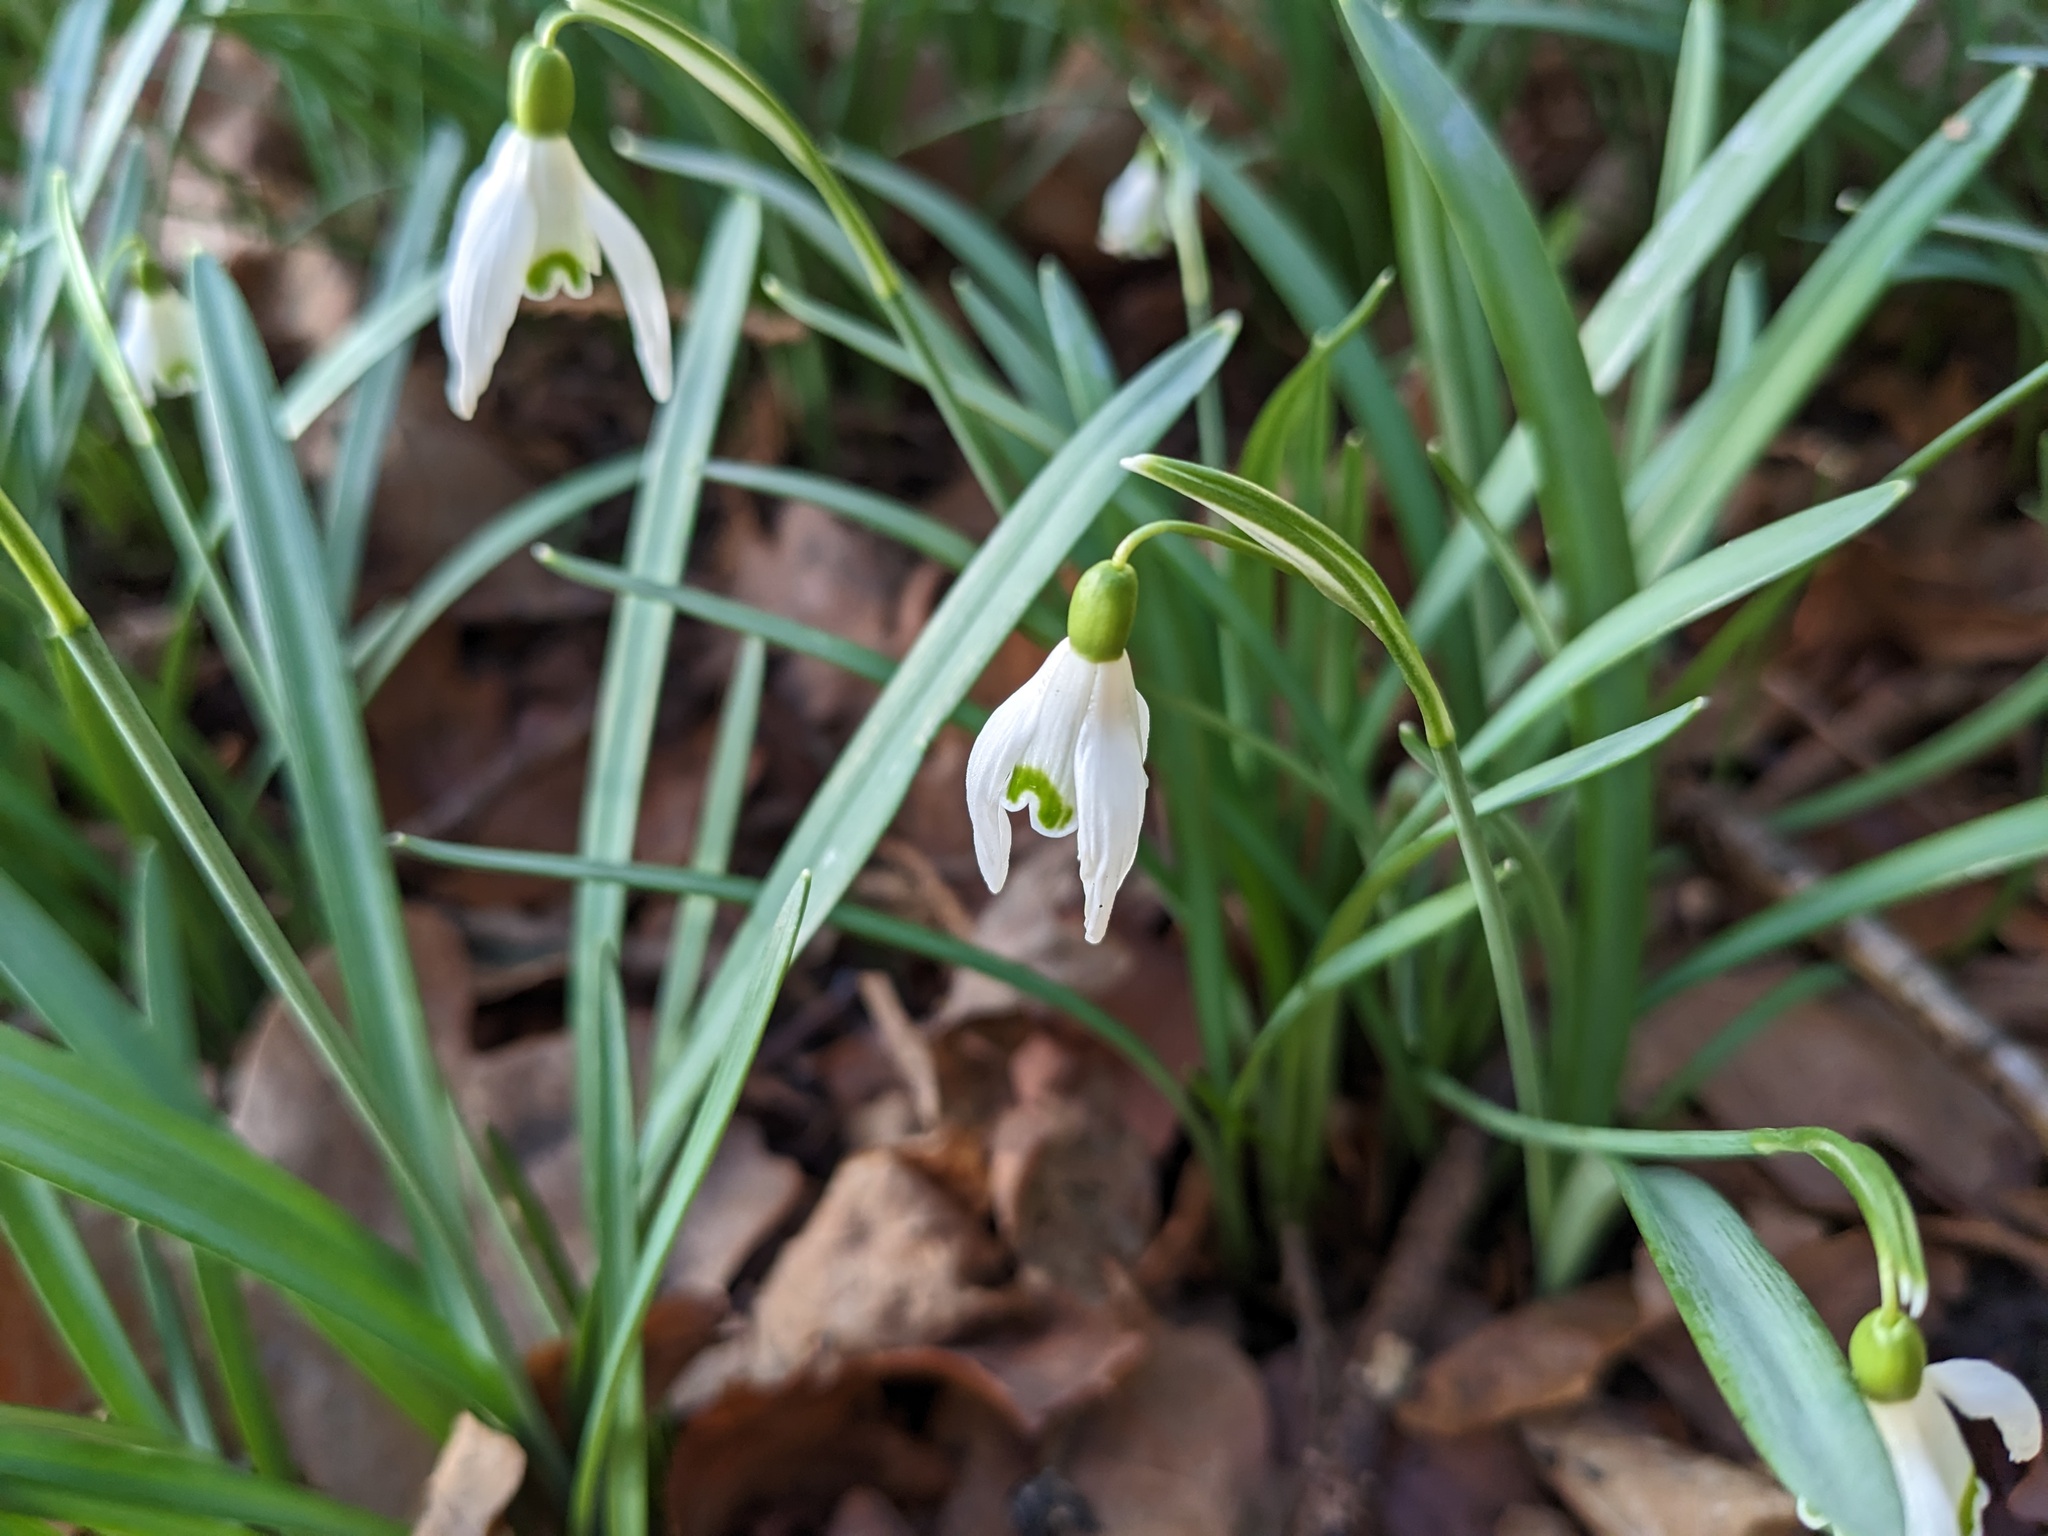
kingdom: Plantae
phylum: Tracheophyta
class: Liliopsida
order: Asparagales
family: Amaryllidaceae
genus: Galanthus
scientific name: Galanthus nivalis
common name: Snowdrop
